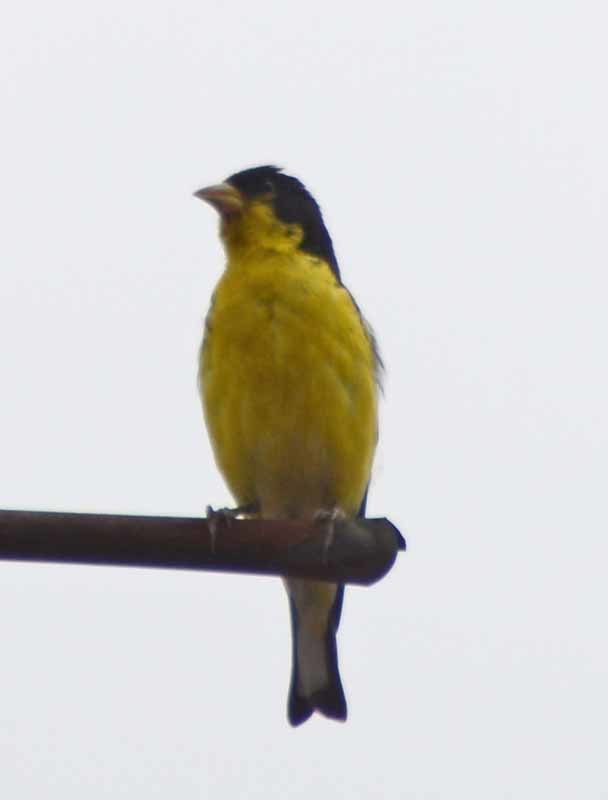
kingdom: Animalia
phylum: Chordata
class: Aves
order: Passeriformes
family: Fringillidae
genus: Spinus
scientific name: Spinus psaltria
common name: Lesser goldfinch
